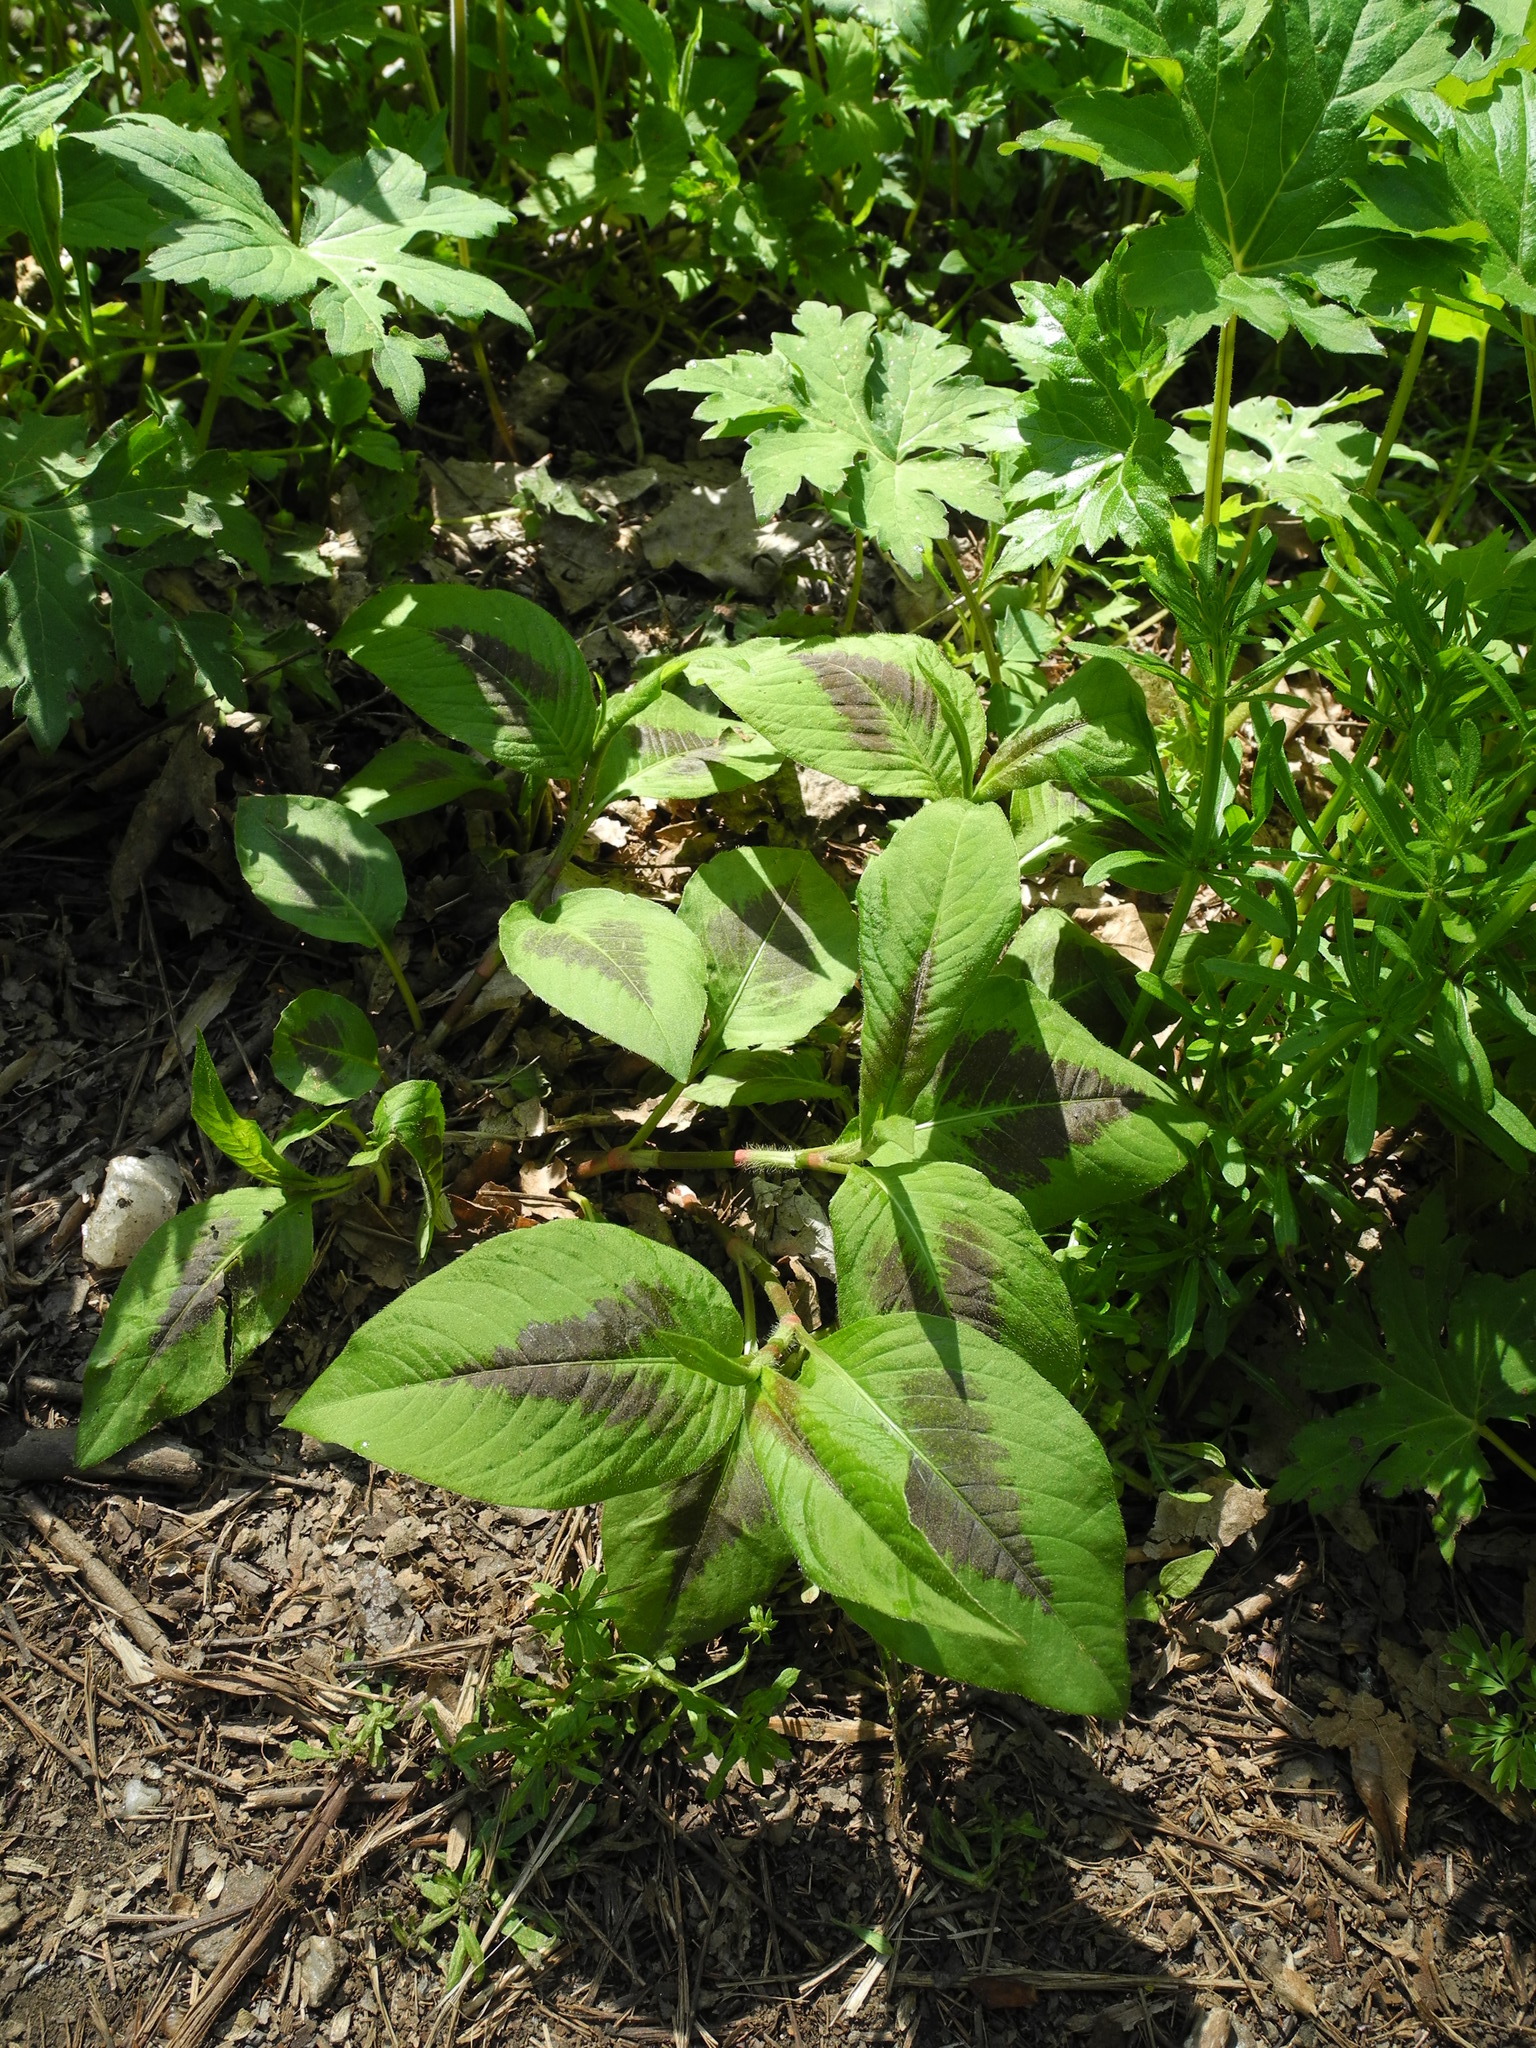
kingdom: Plantae
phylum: Tracheophyta
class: Magnoliopsida
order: Caryophyllales
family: Polygonaceae
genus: Persicaria
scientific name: Persicaria virginiana
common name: Jumpseed
